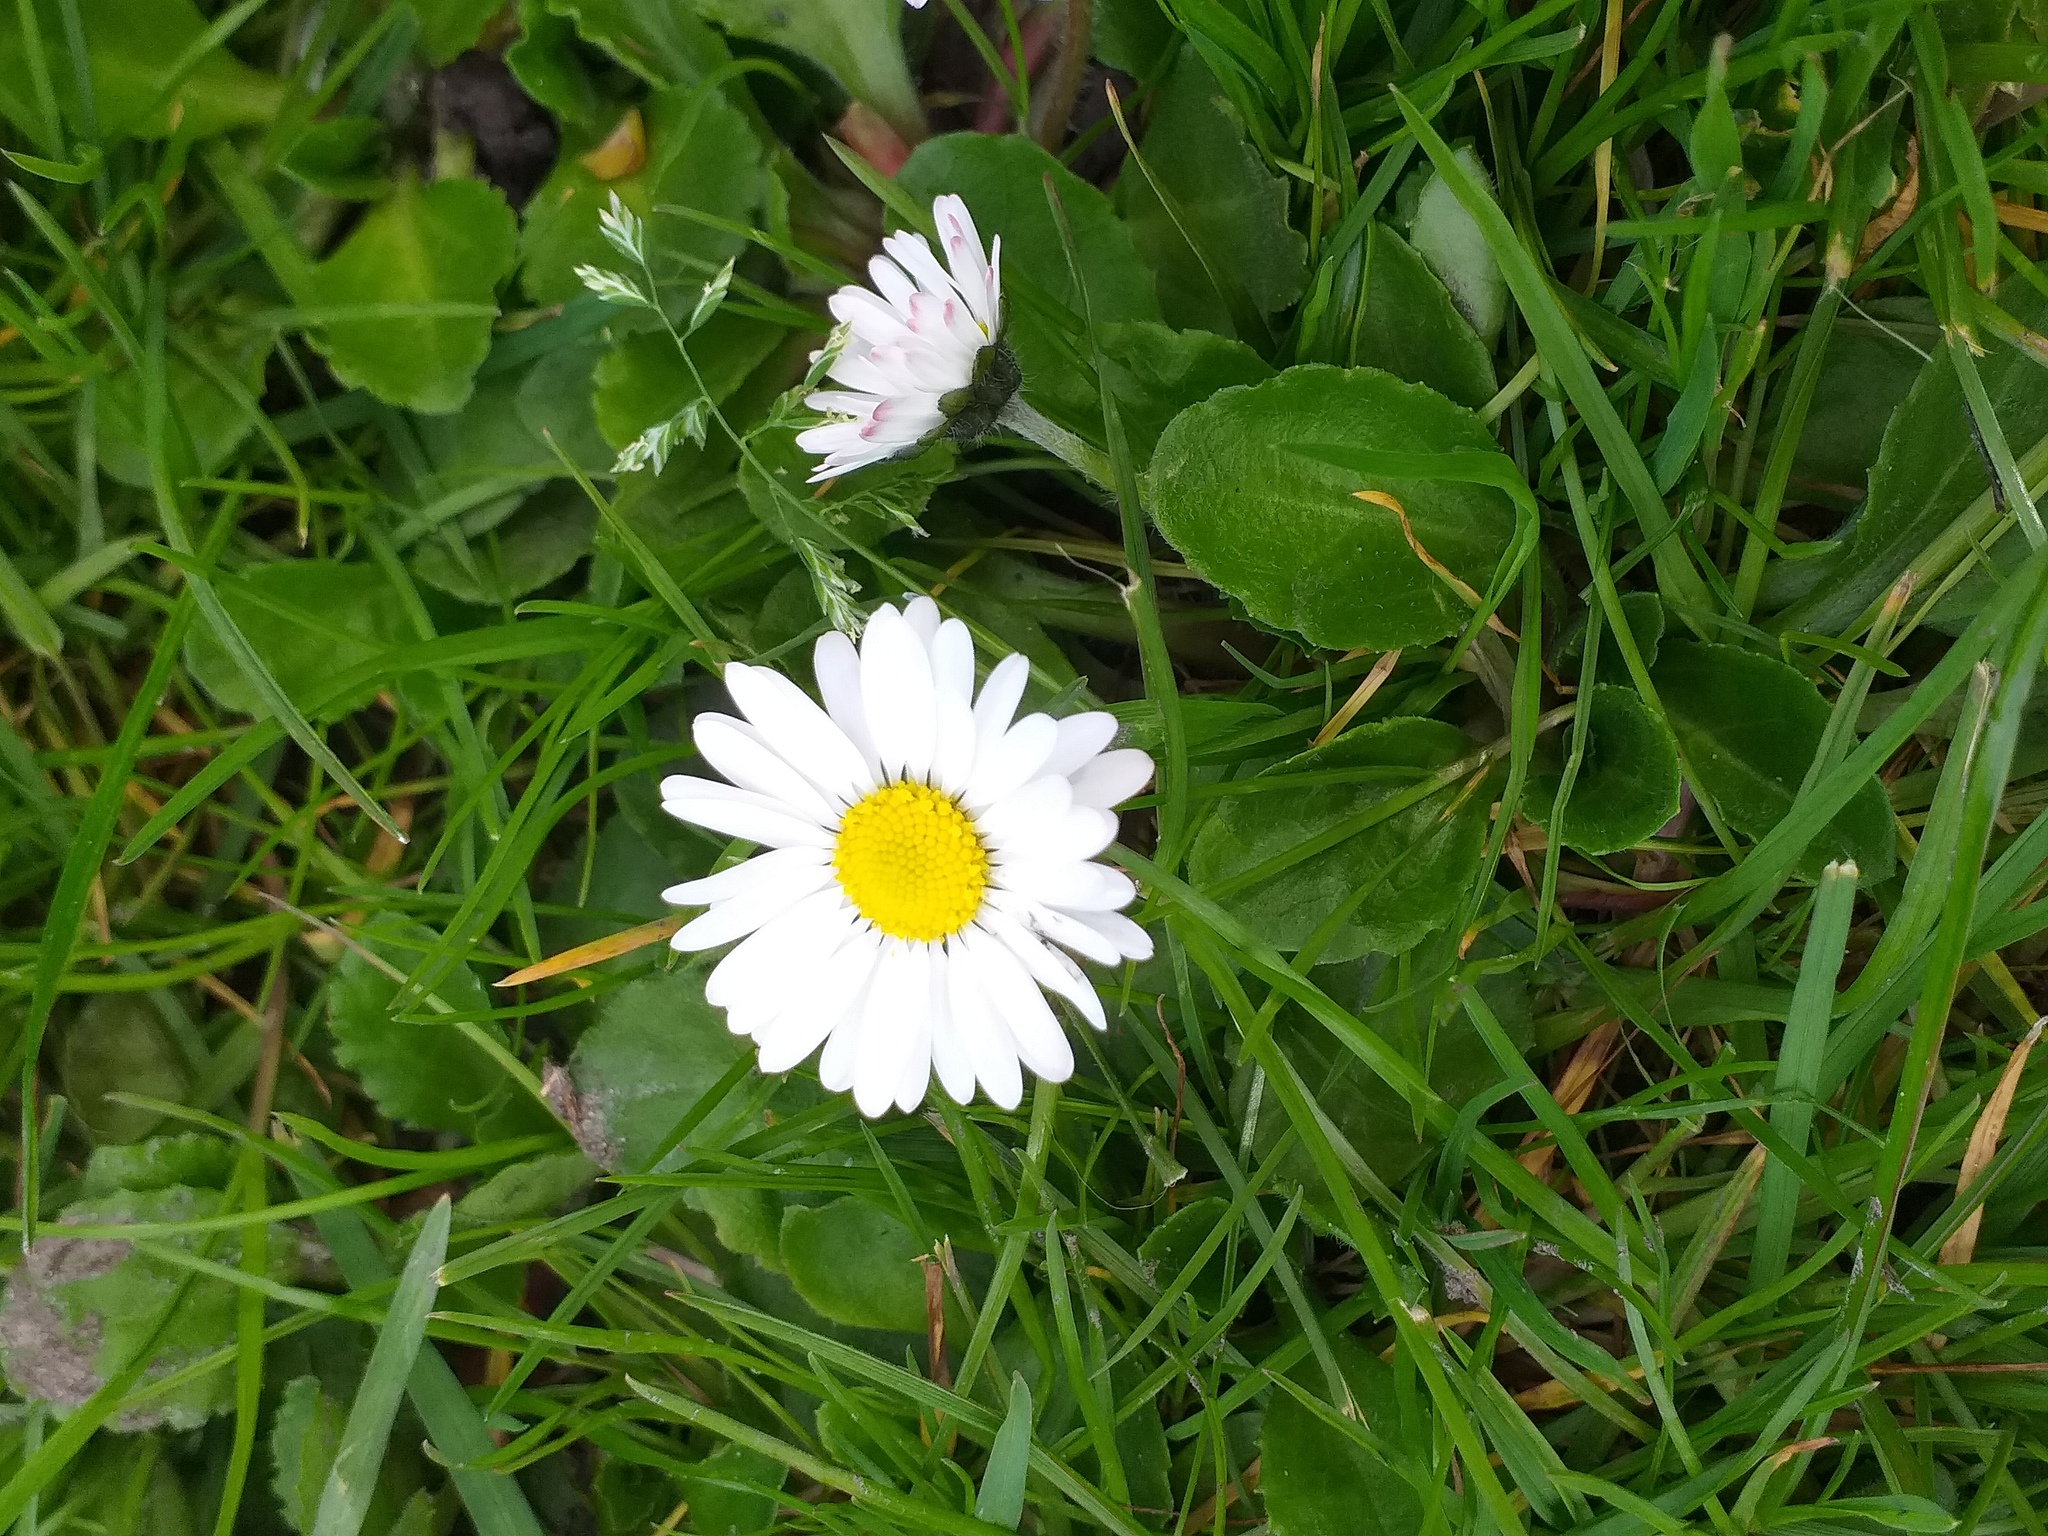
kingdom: Plantae
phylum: Tracheophyta
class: Magnoliopsida
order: Asterales
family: Asteraceae
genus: Bellis
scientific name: Bellis perennis
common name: Lawndaisy
